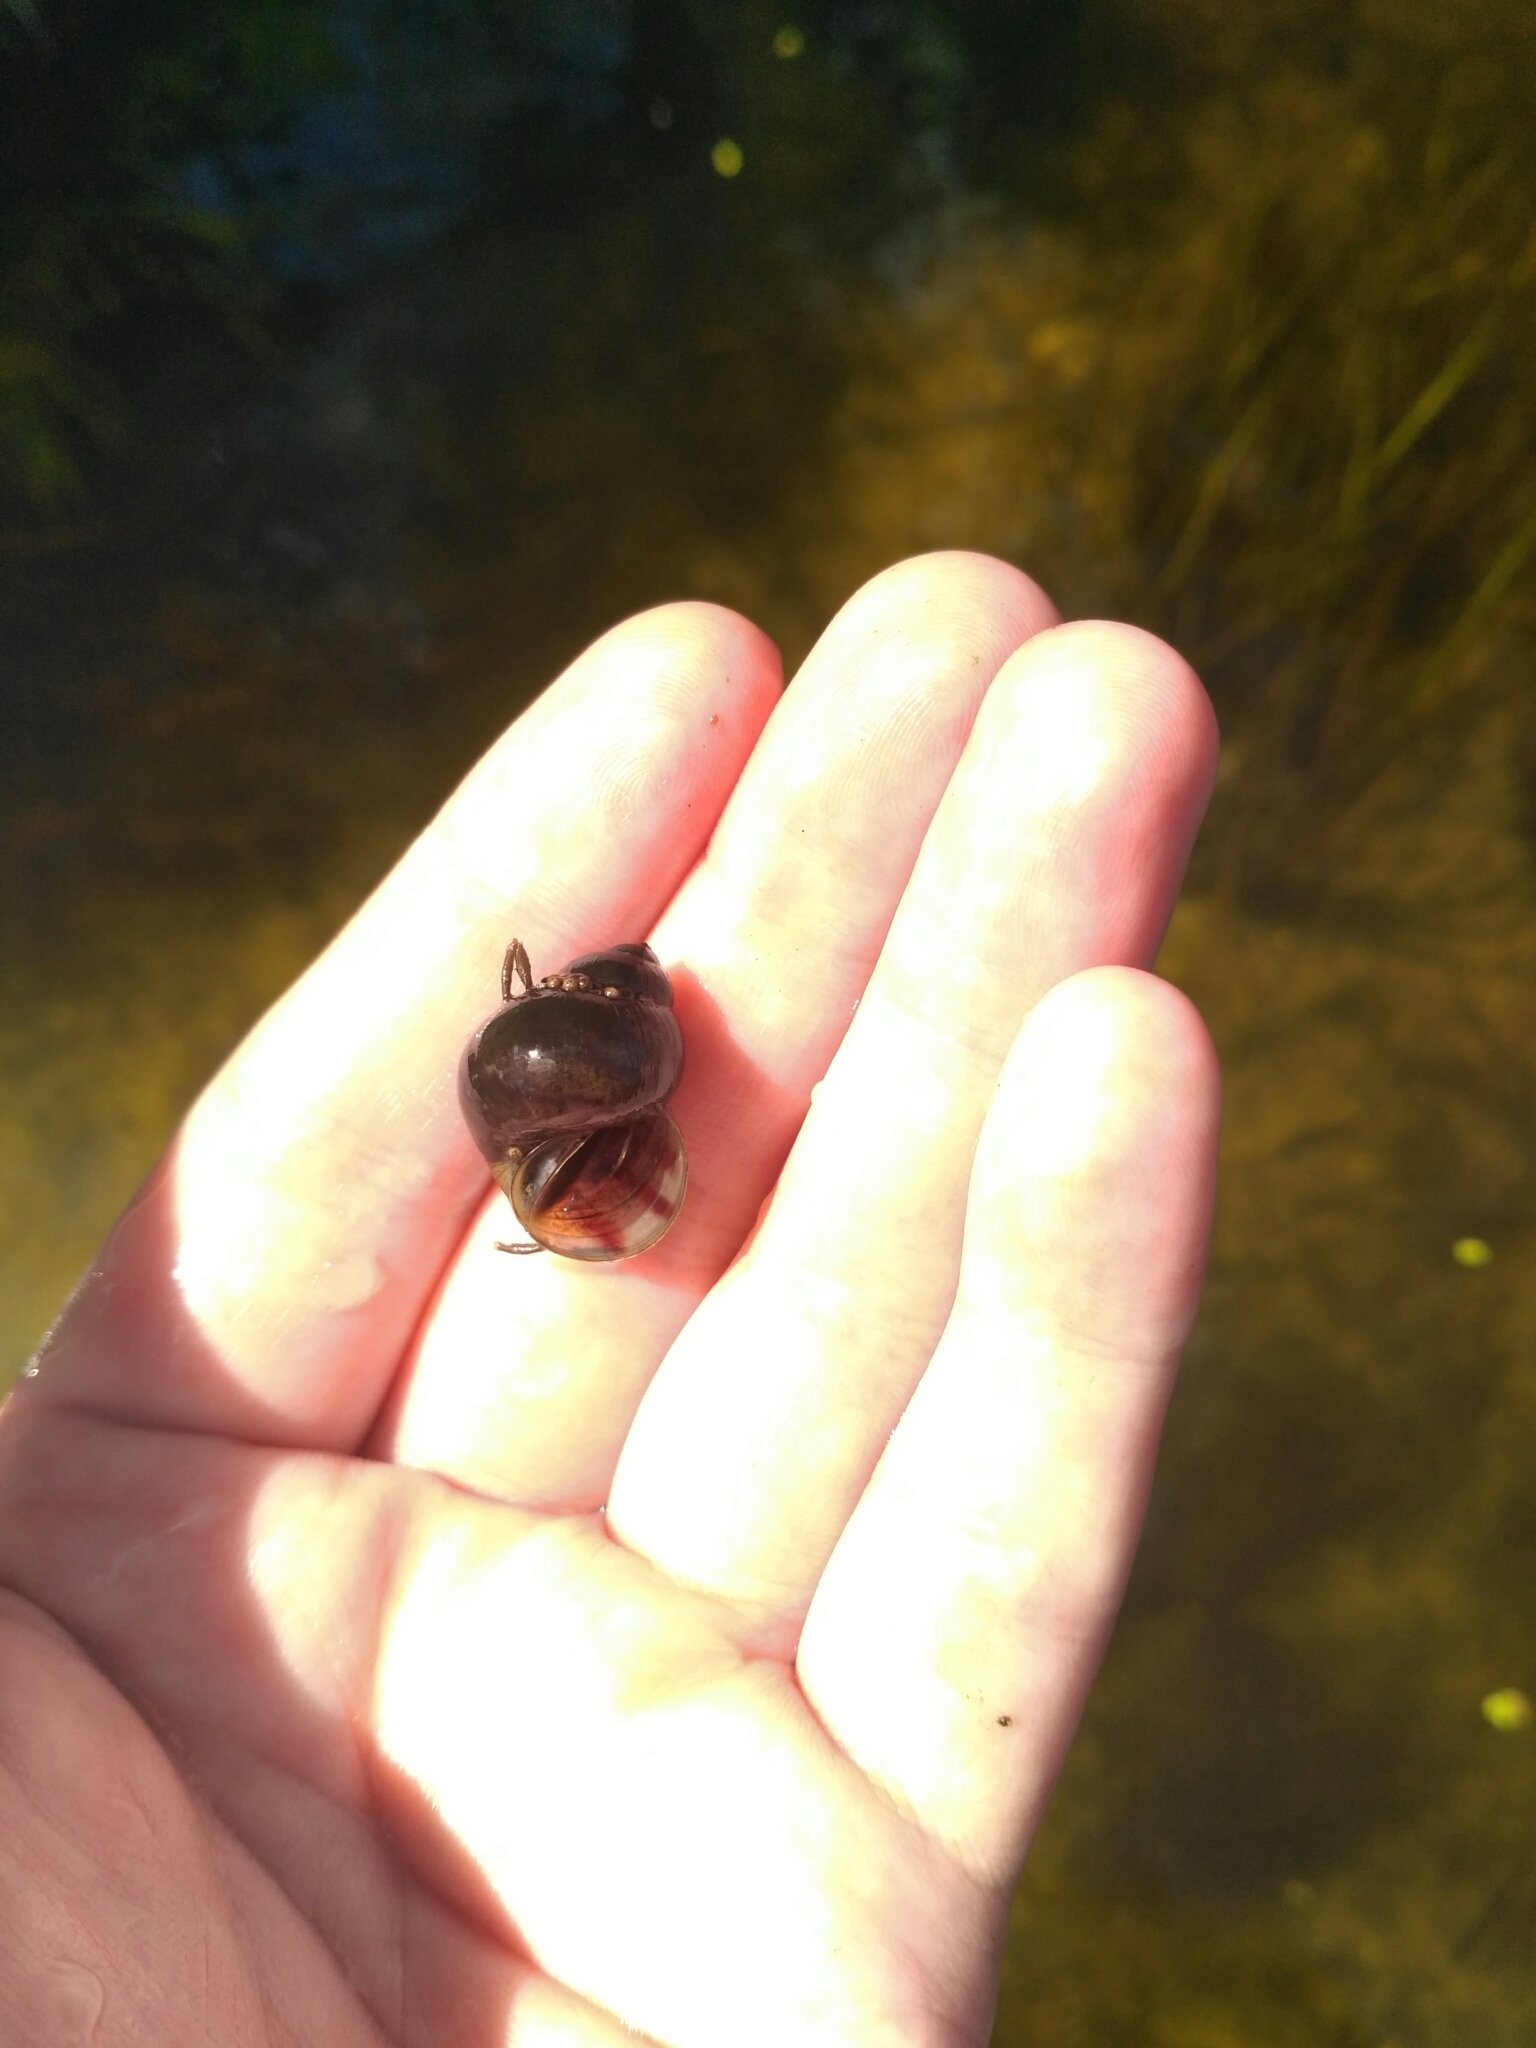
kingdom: Animalia
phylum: Mollusca
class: Gastropoda
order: Architaenioglossa
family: Viviparidae
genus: Viviparus
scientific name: Viviparus viviparus
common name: River snail
